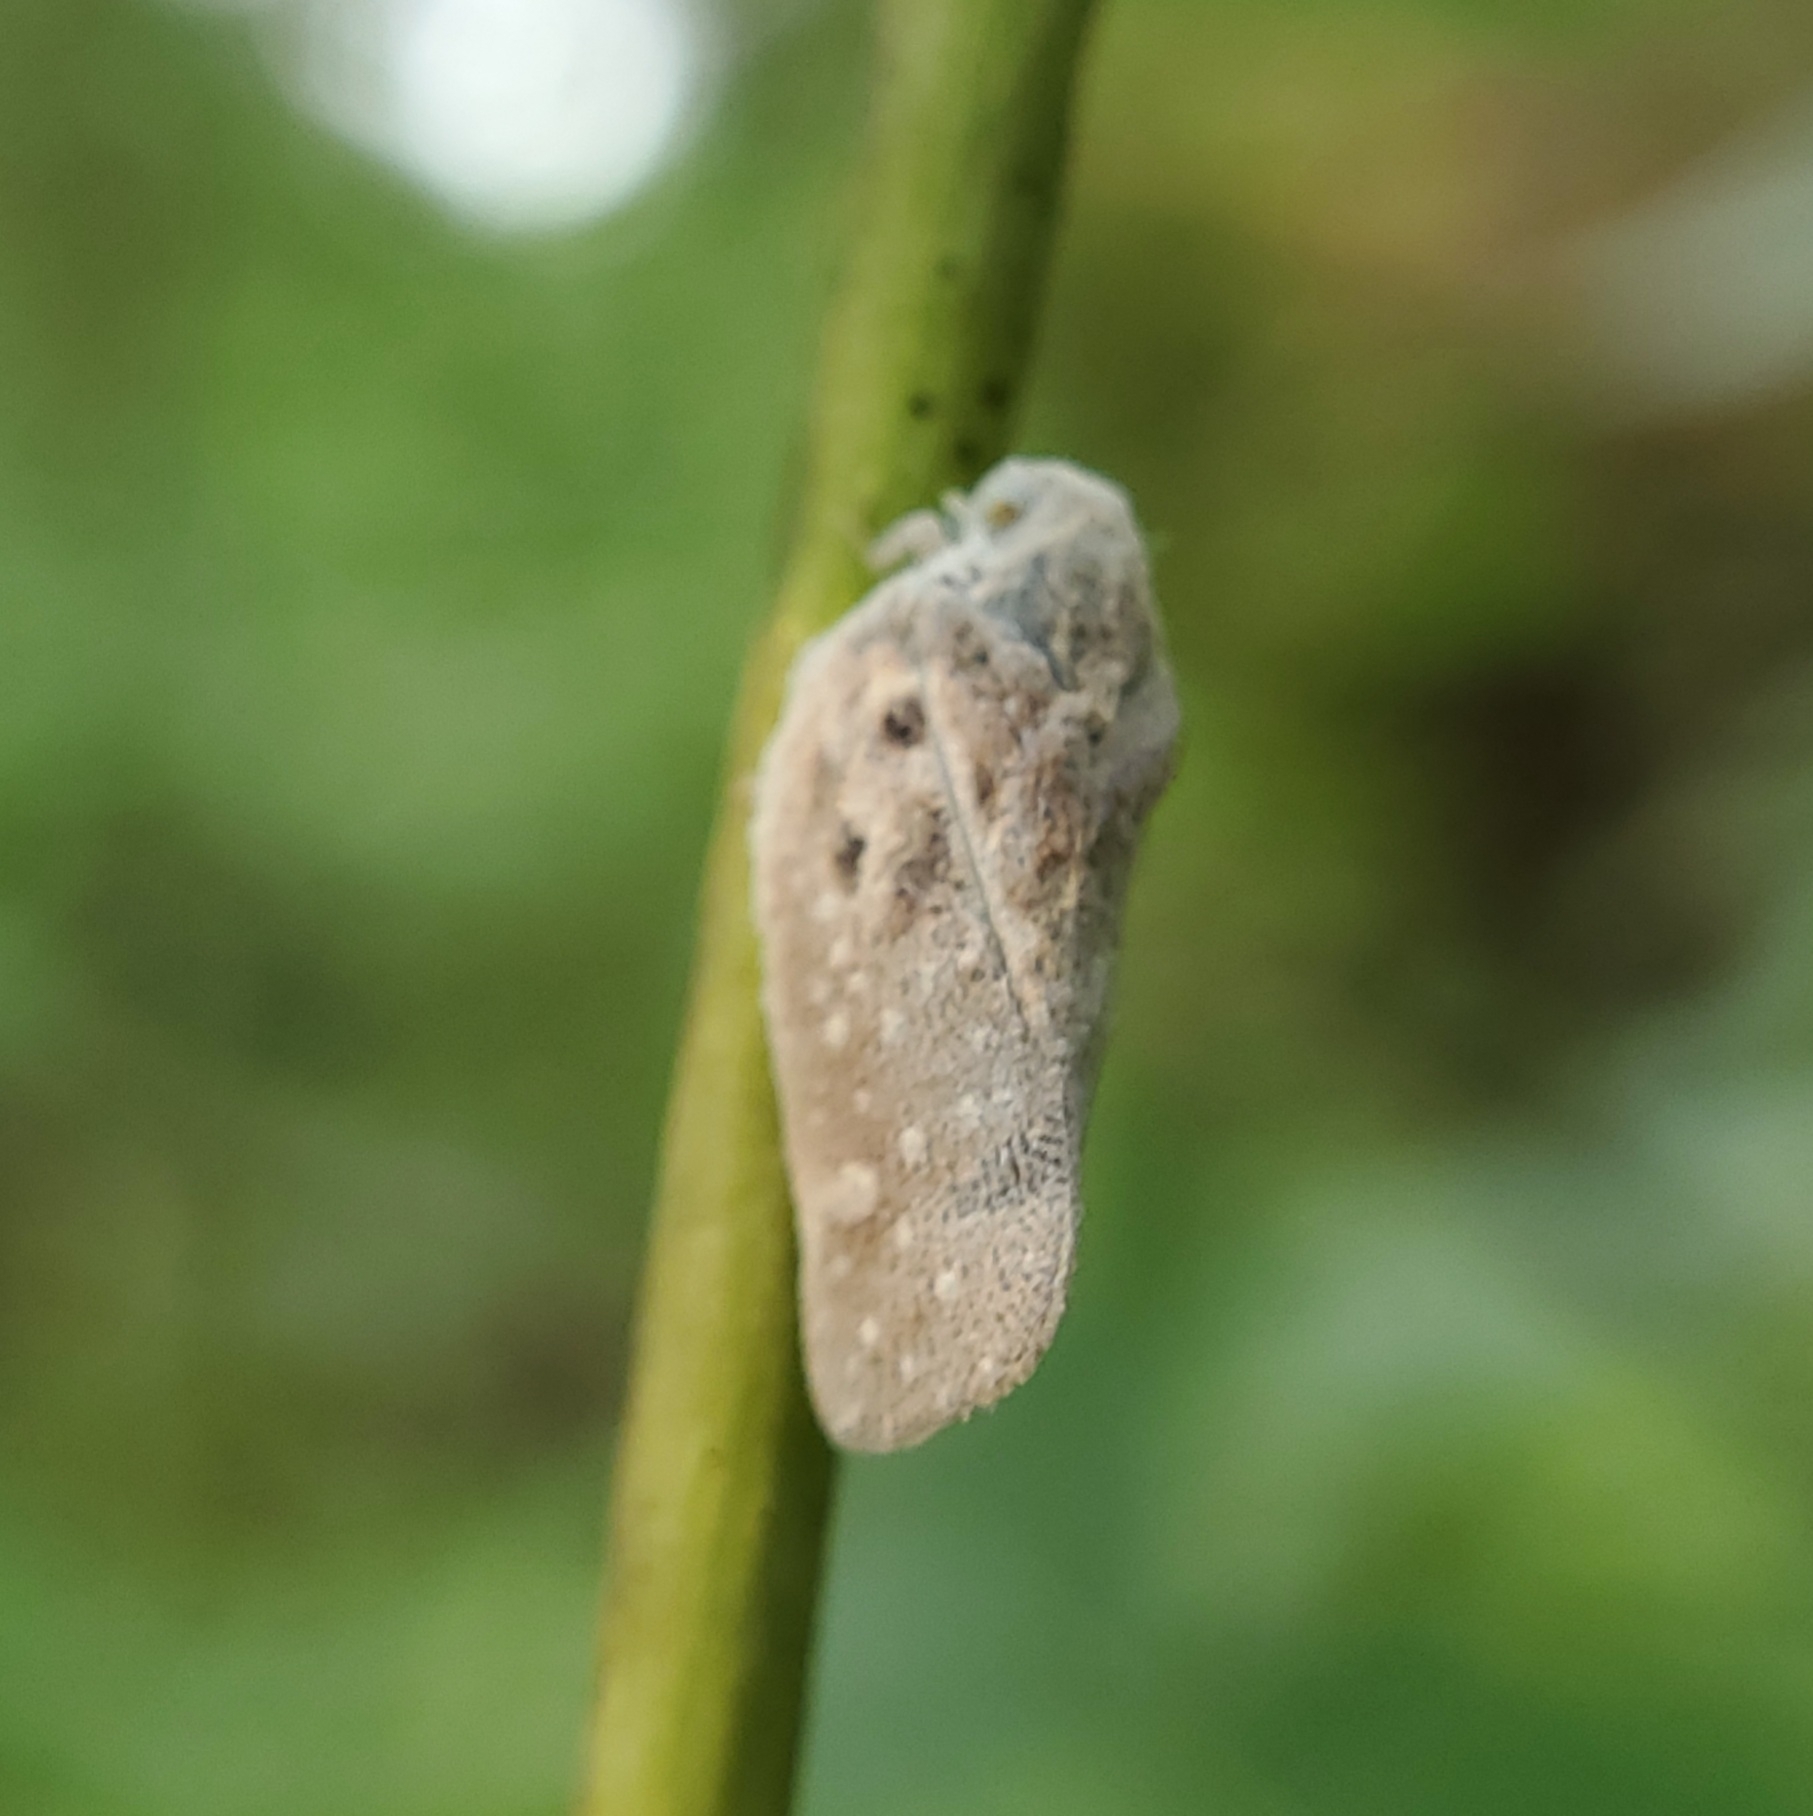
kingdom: Animalia
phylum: Arthropoda
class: Insecta
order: Hemiptera
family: Flatidae
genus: Metcalfa
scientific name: Metcalfa pruinosa
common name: Citrus flatid planthopper
